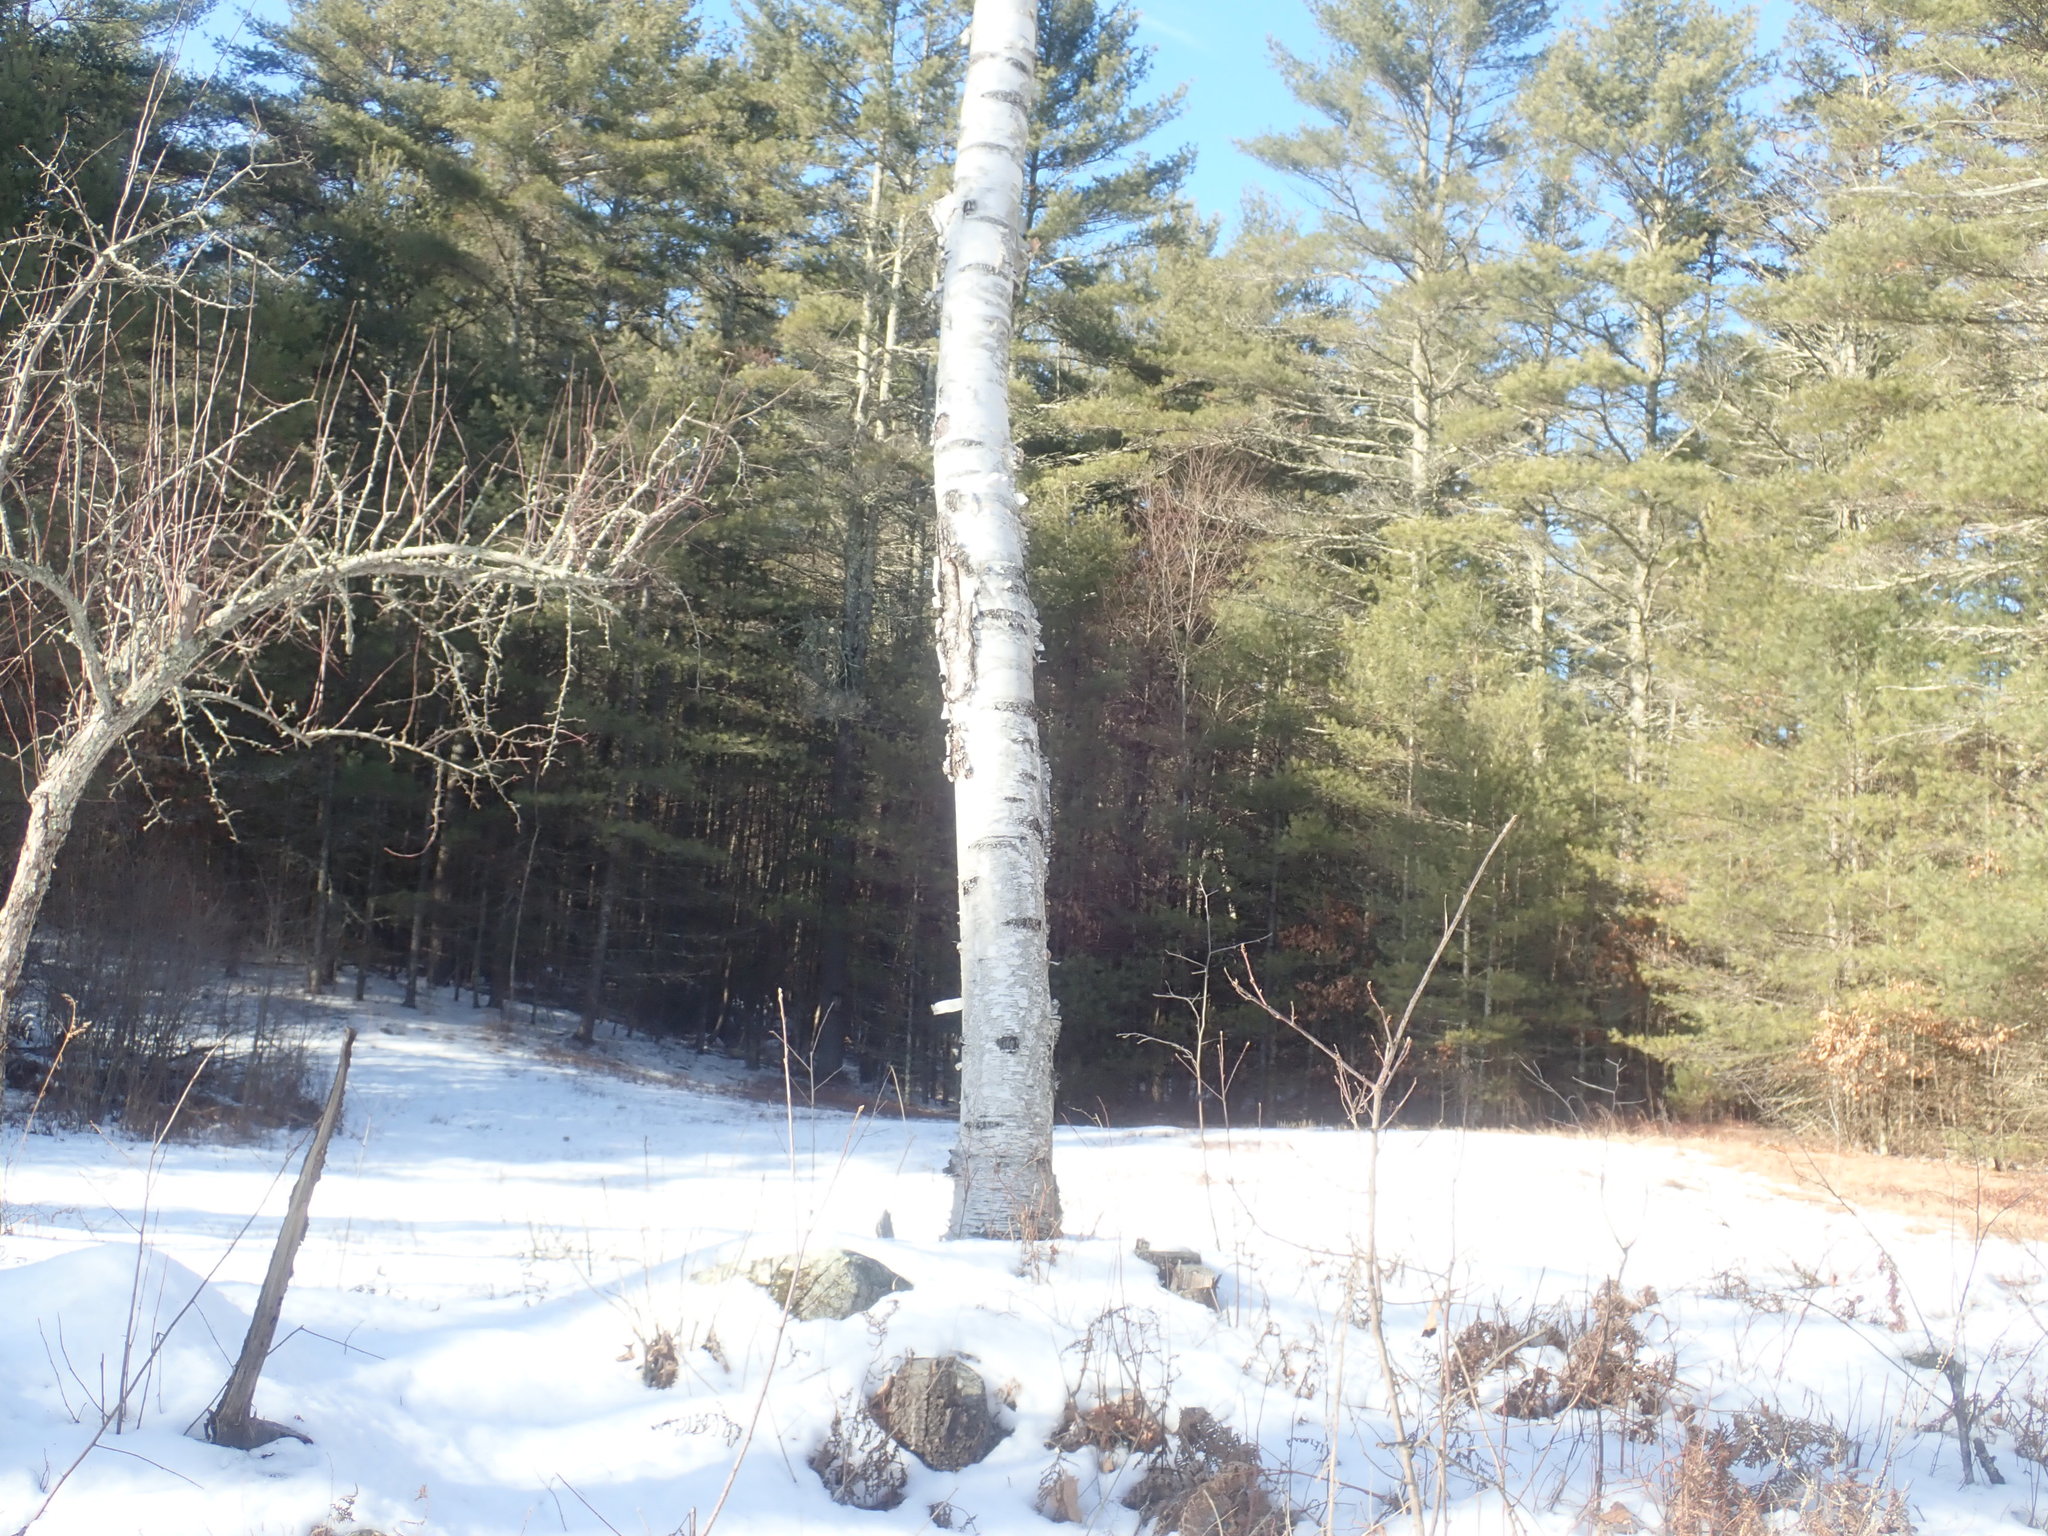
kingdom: Plantae
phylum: Tracheophyta
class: Magnoliopsida
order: Fagales
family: Betulaceae
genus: Betula
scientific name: Betula papyrifera
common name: Paper birch
